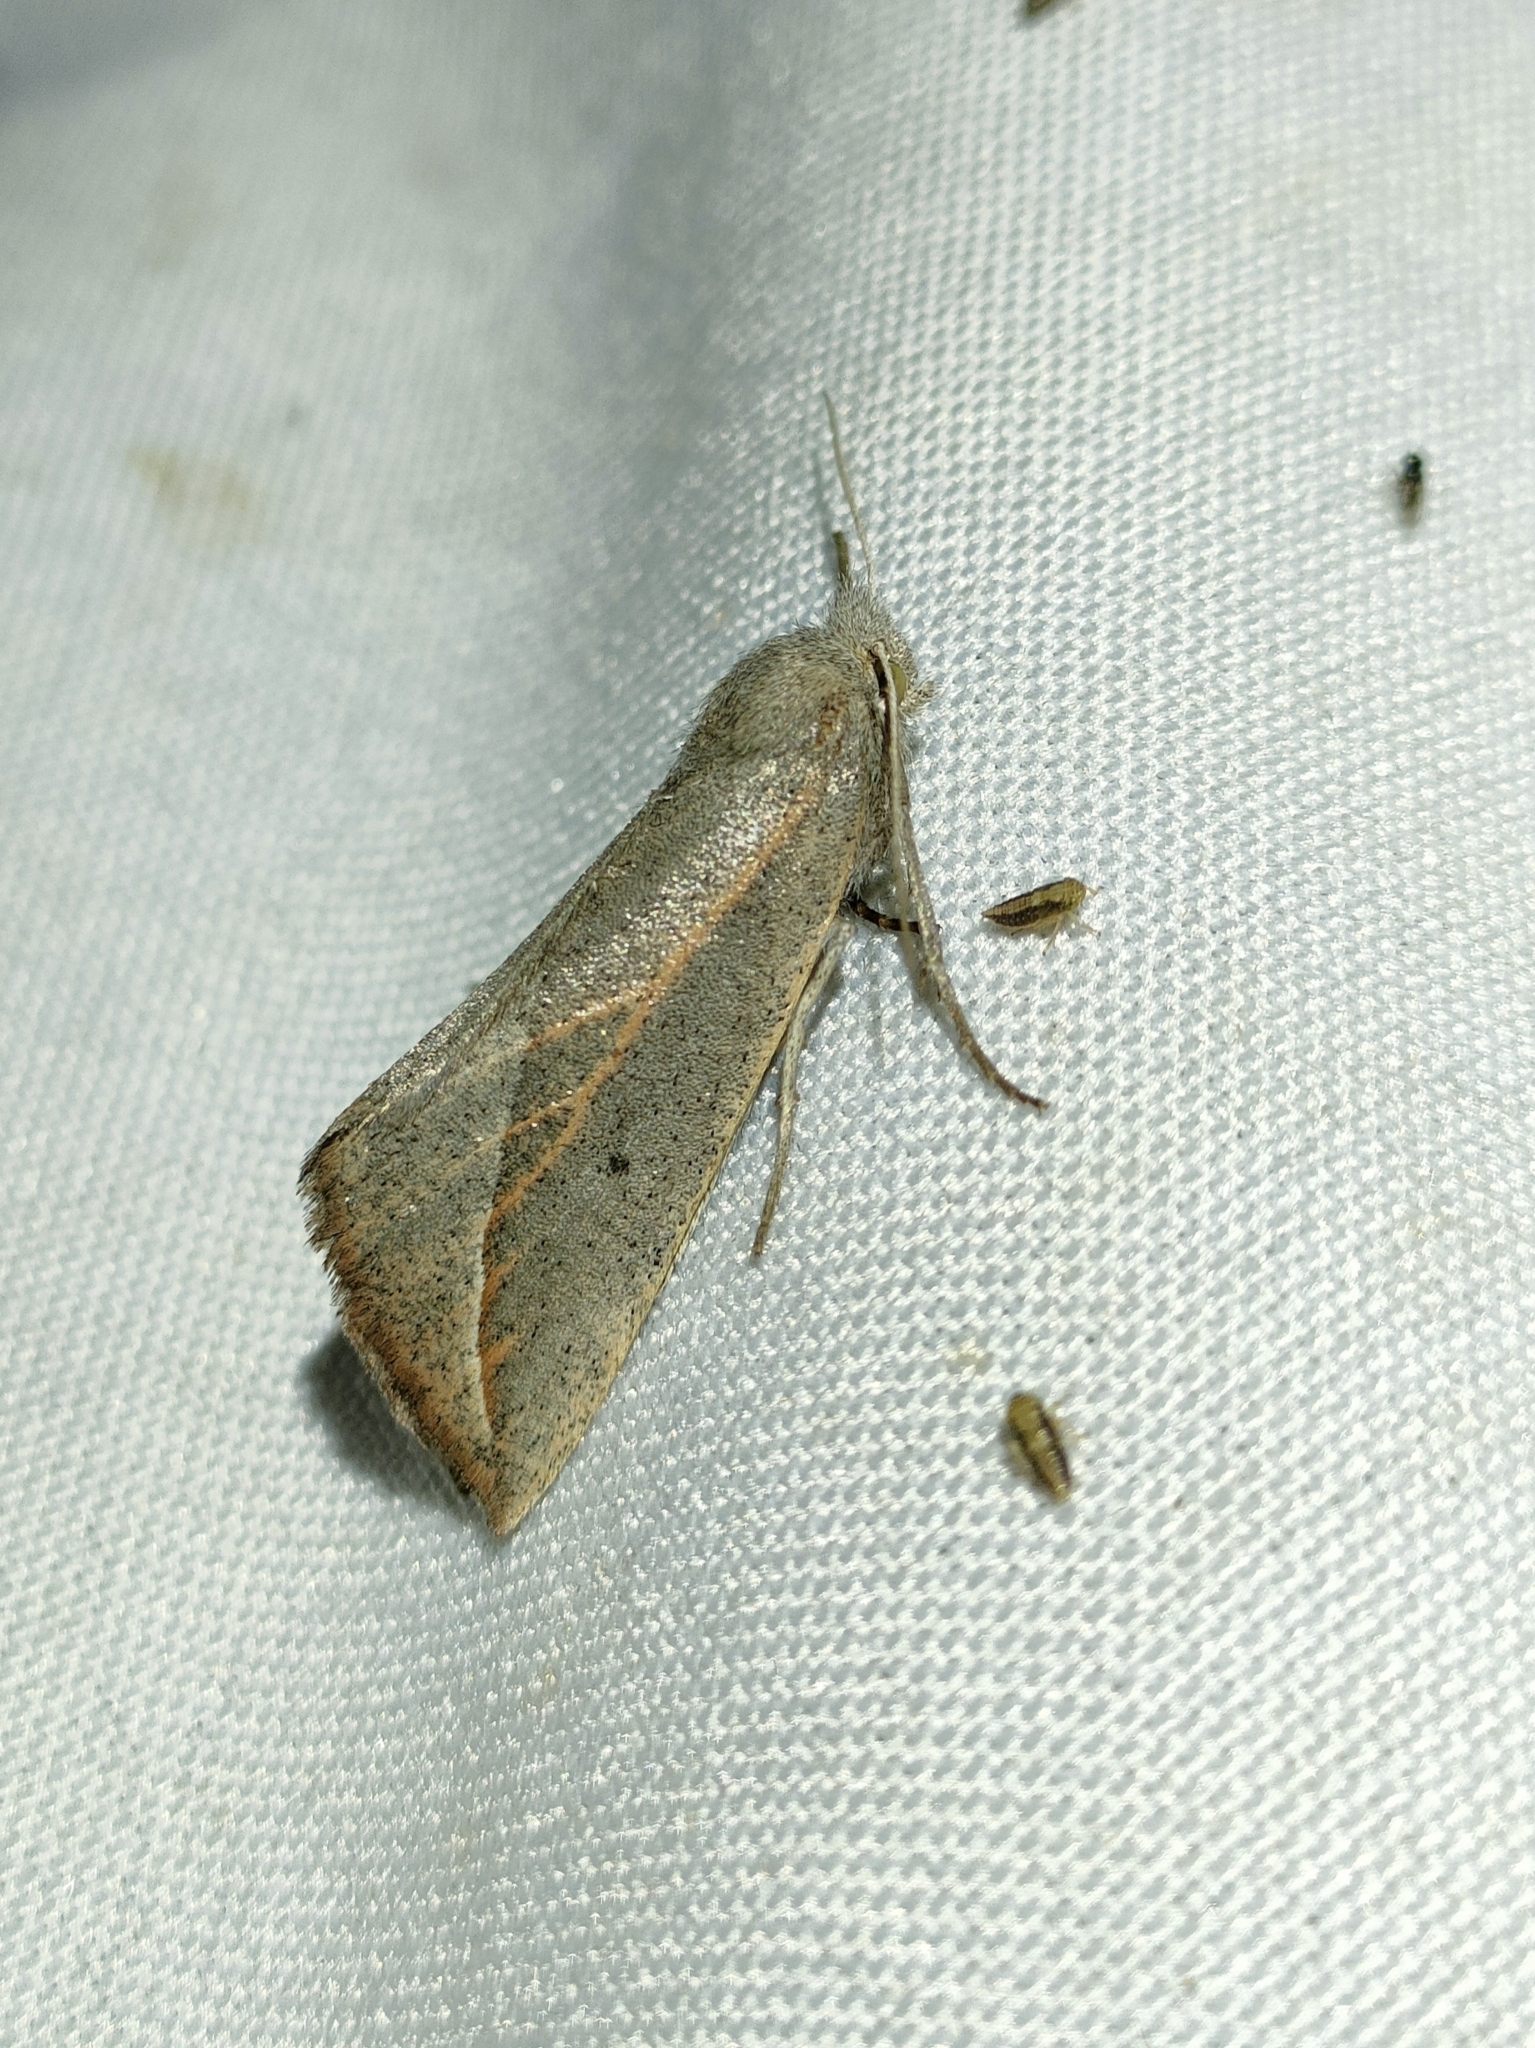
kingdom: Animalia
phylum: Arthropoda
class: Insecta
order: Lepidoptera
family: Geometridae
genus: Compsoptera
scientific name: Compsoptera opacaria
